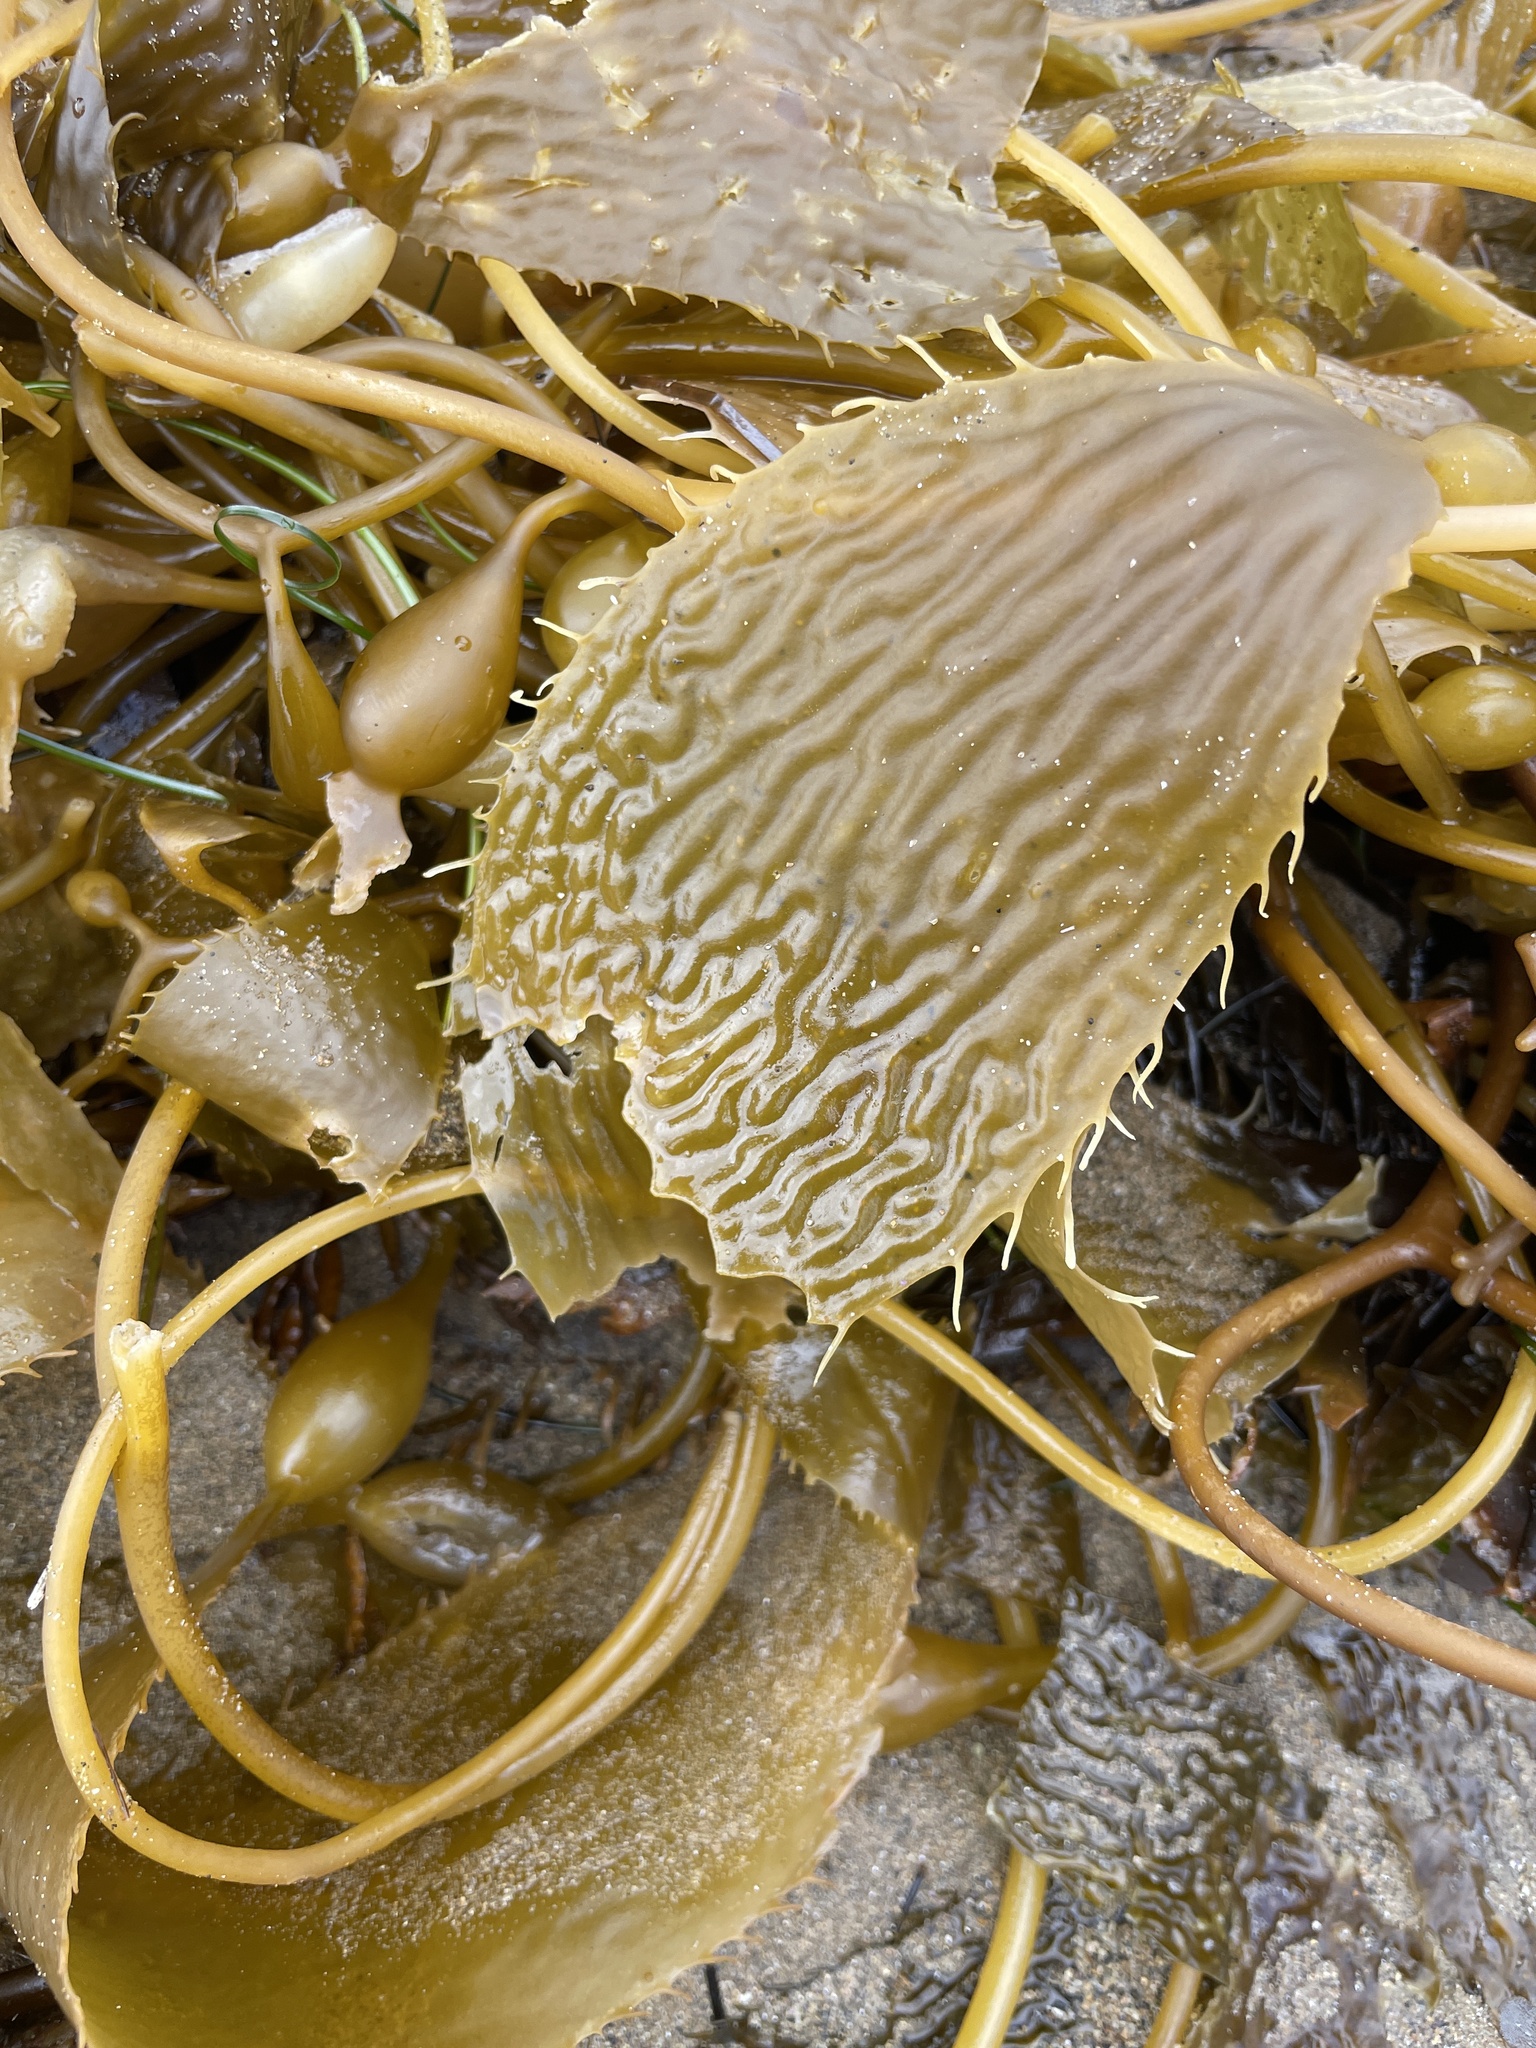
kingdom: Chromista
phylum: Ochrophyta
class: Phaeophyceae
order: Laminariales
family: Laminariaceae
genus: Macrocystis
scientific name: Macrocystis pyrifera
